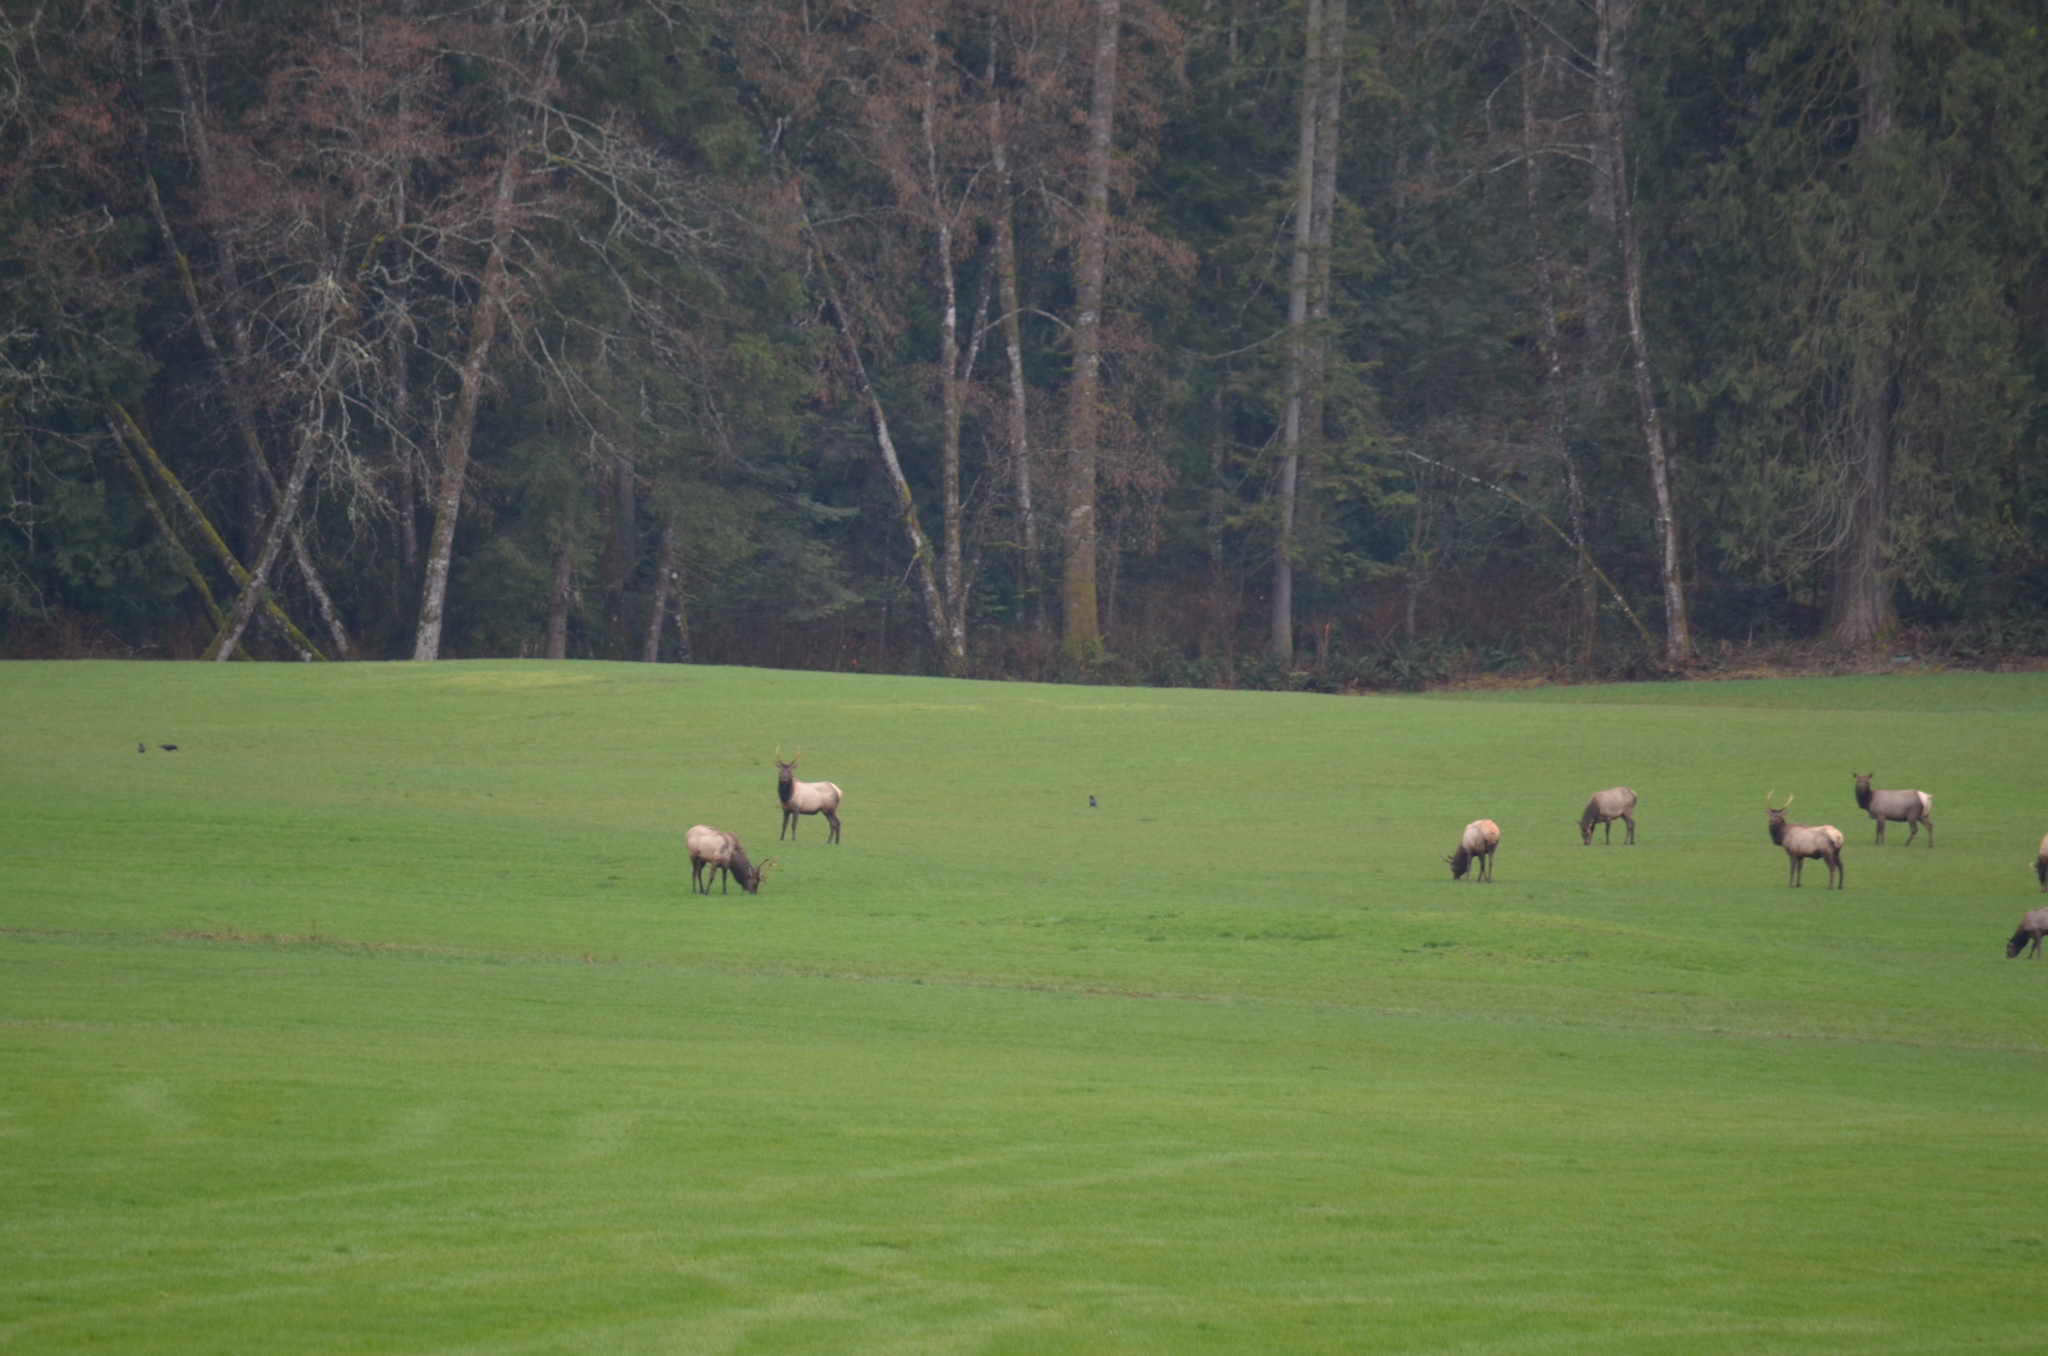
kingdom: Animalia
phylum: Chordata
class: Mammalia
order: Artiodactyla
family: Cervidae
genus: Cervus
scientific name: Cervus elaphus
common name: Red deer
